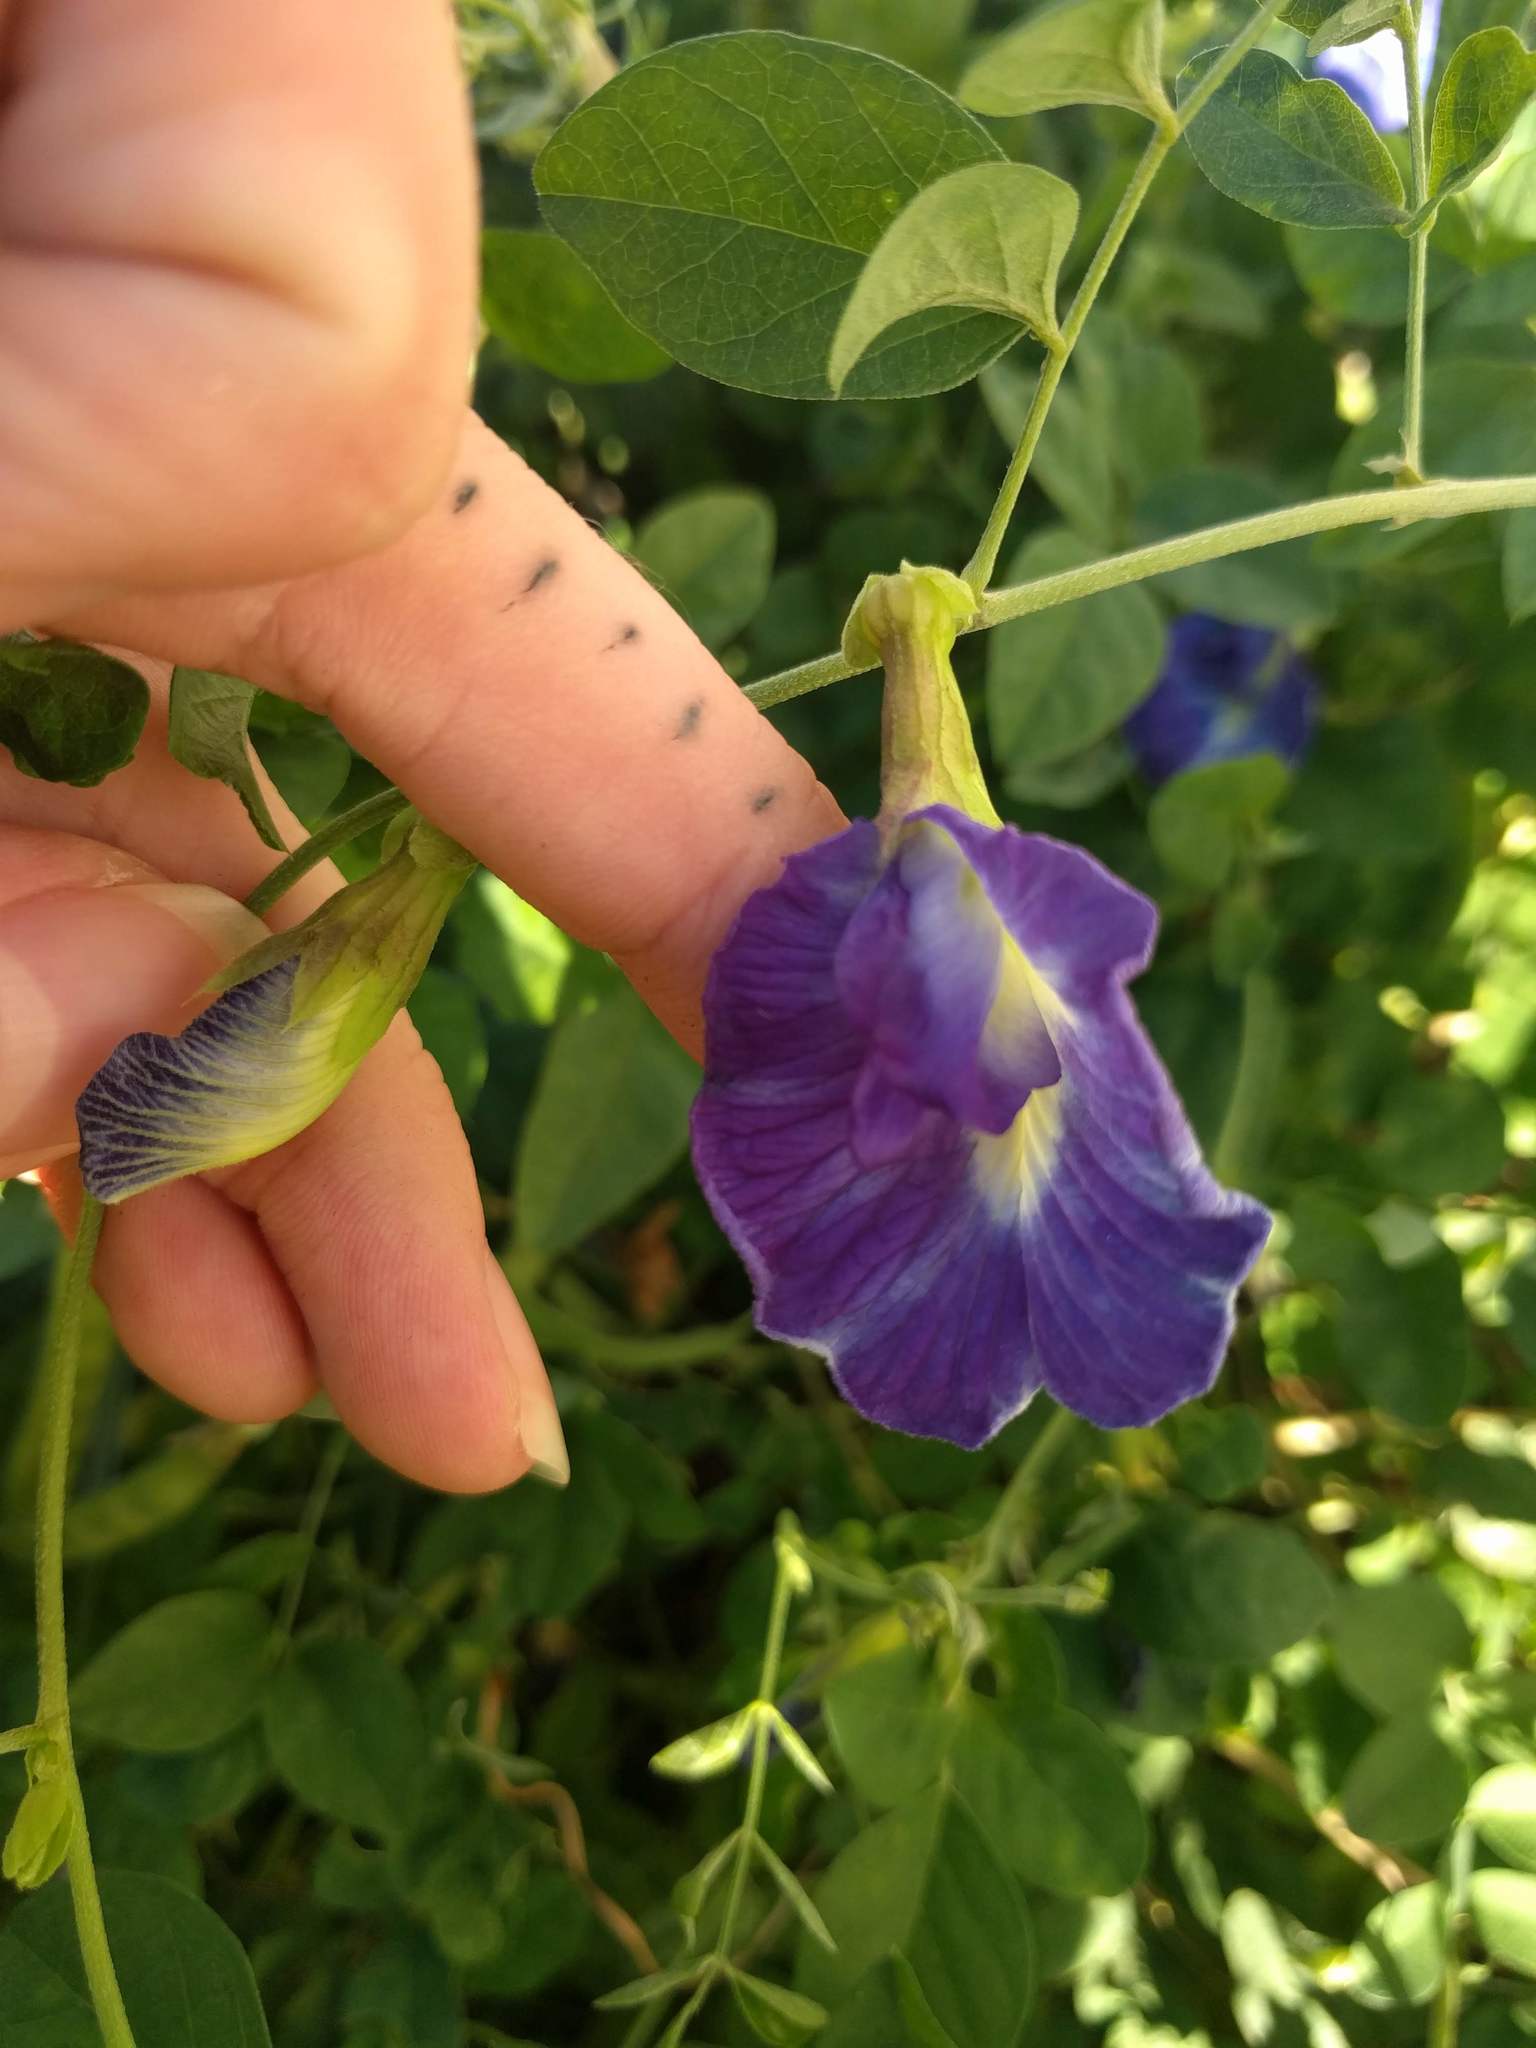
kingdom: Plantae
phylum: Tracheophyta
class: Magnoliopsida
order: Fabales
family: Fabaceae
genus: Clitoria
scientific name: Clitoria ternatea
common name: Asian pigeonwings
